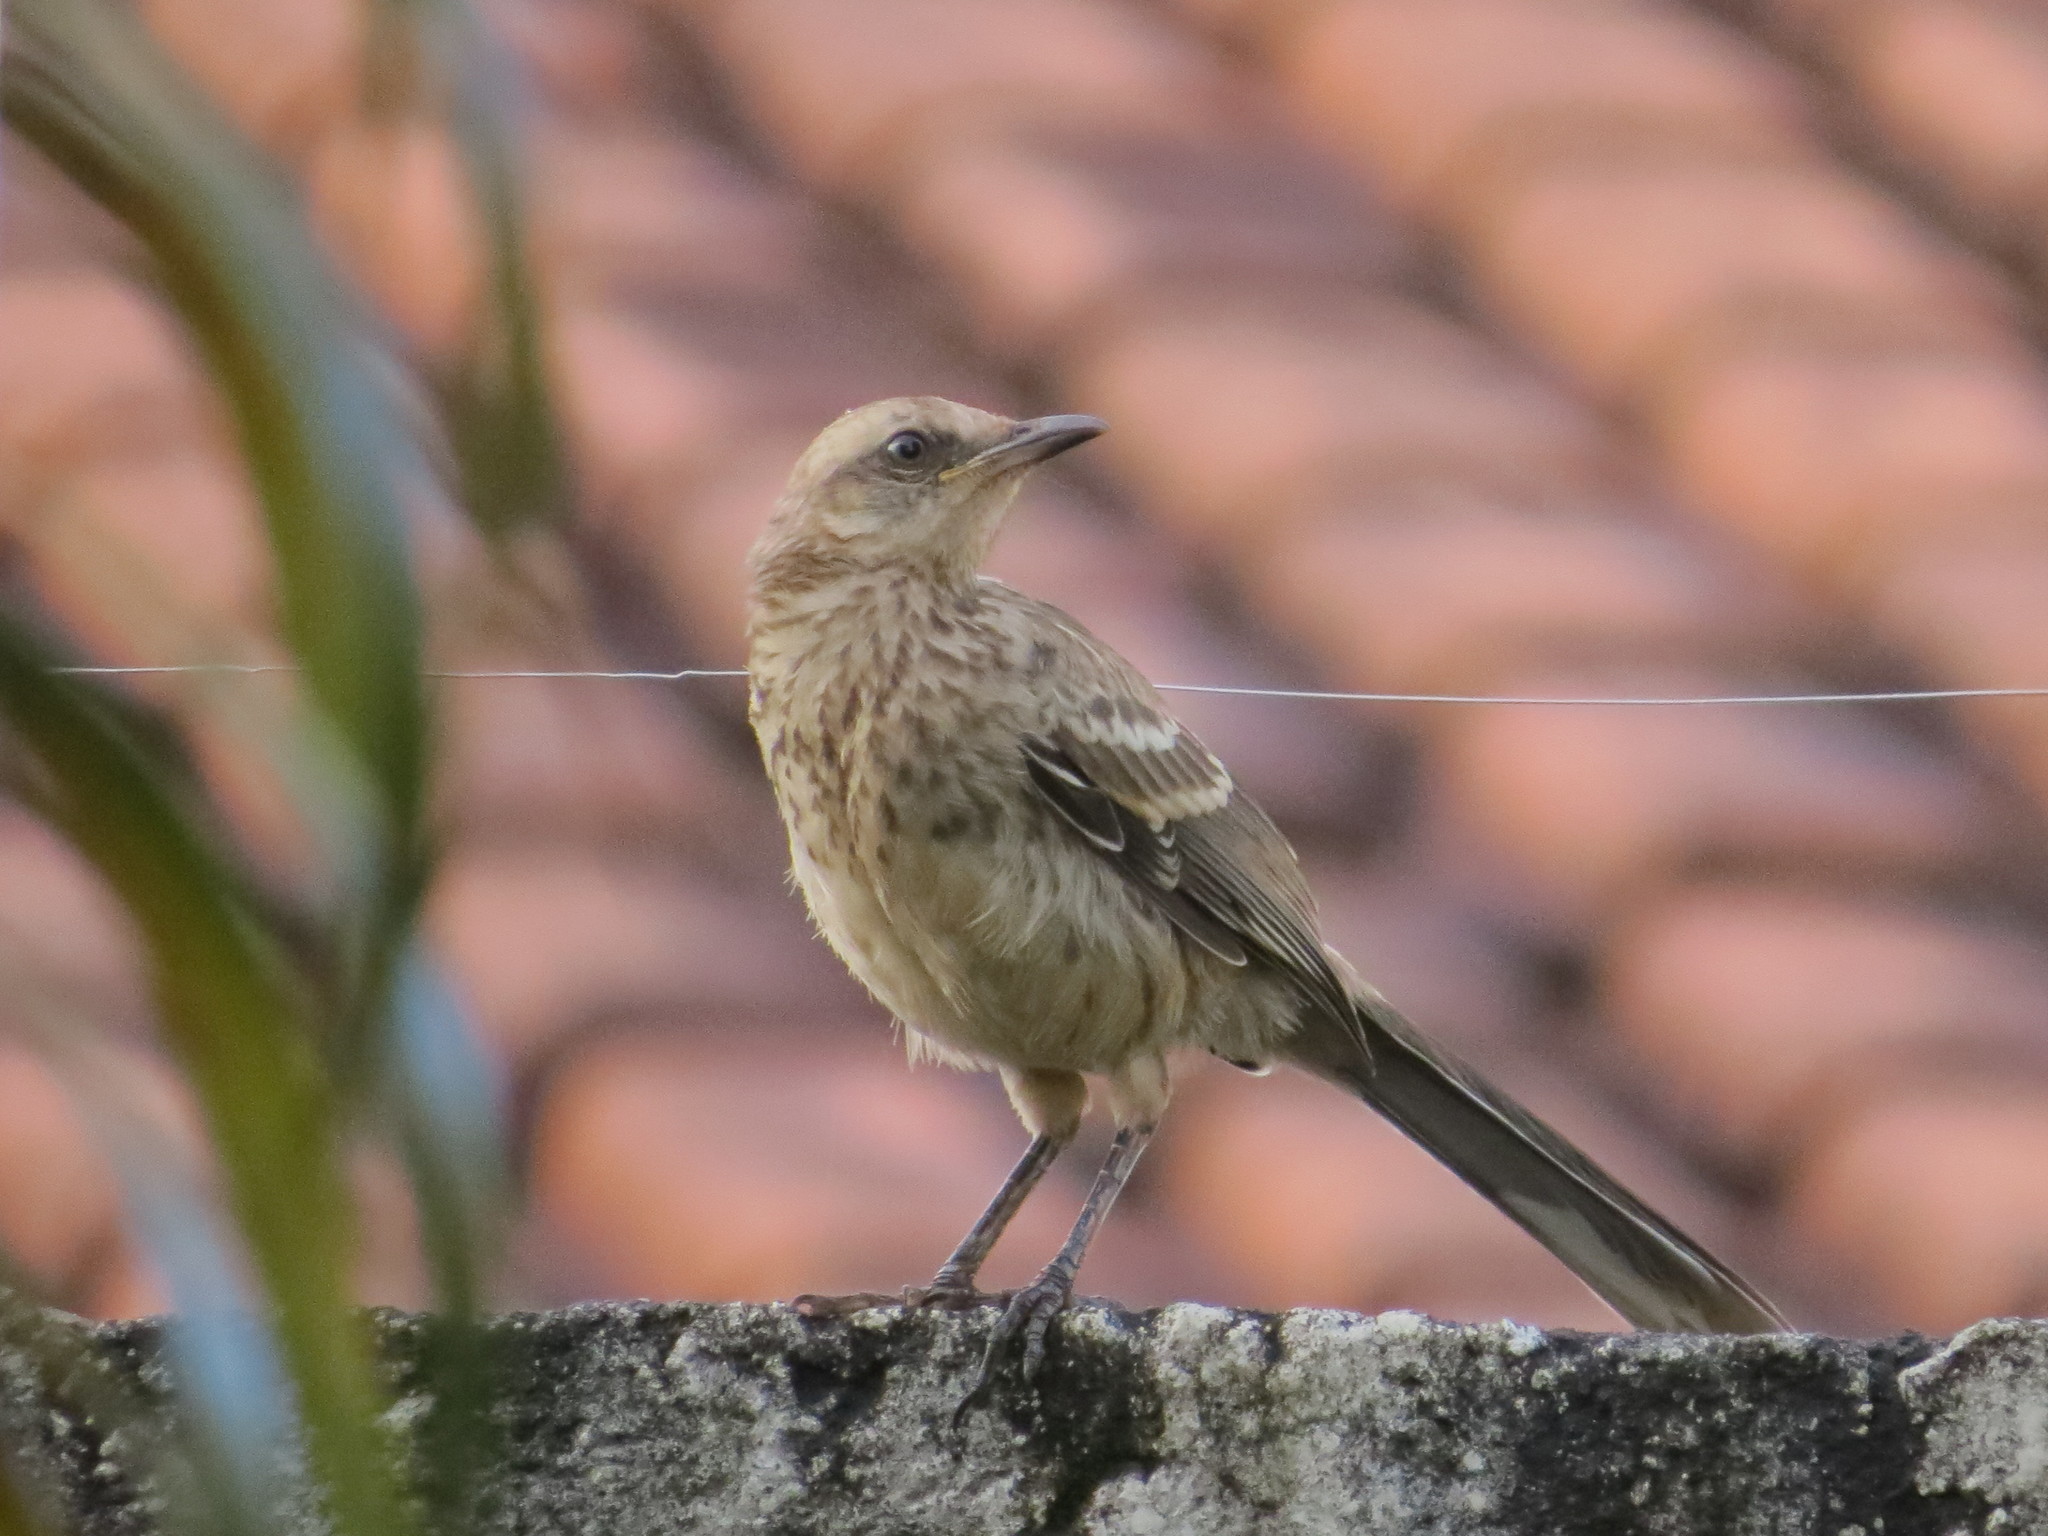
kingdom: Animalia
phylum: Chordata
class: Aves
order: Passeriformes
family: Mimidae
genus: Mimus
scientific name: Mimus saturninus
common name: Chalk-browed mockingbird
